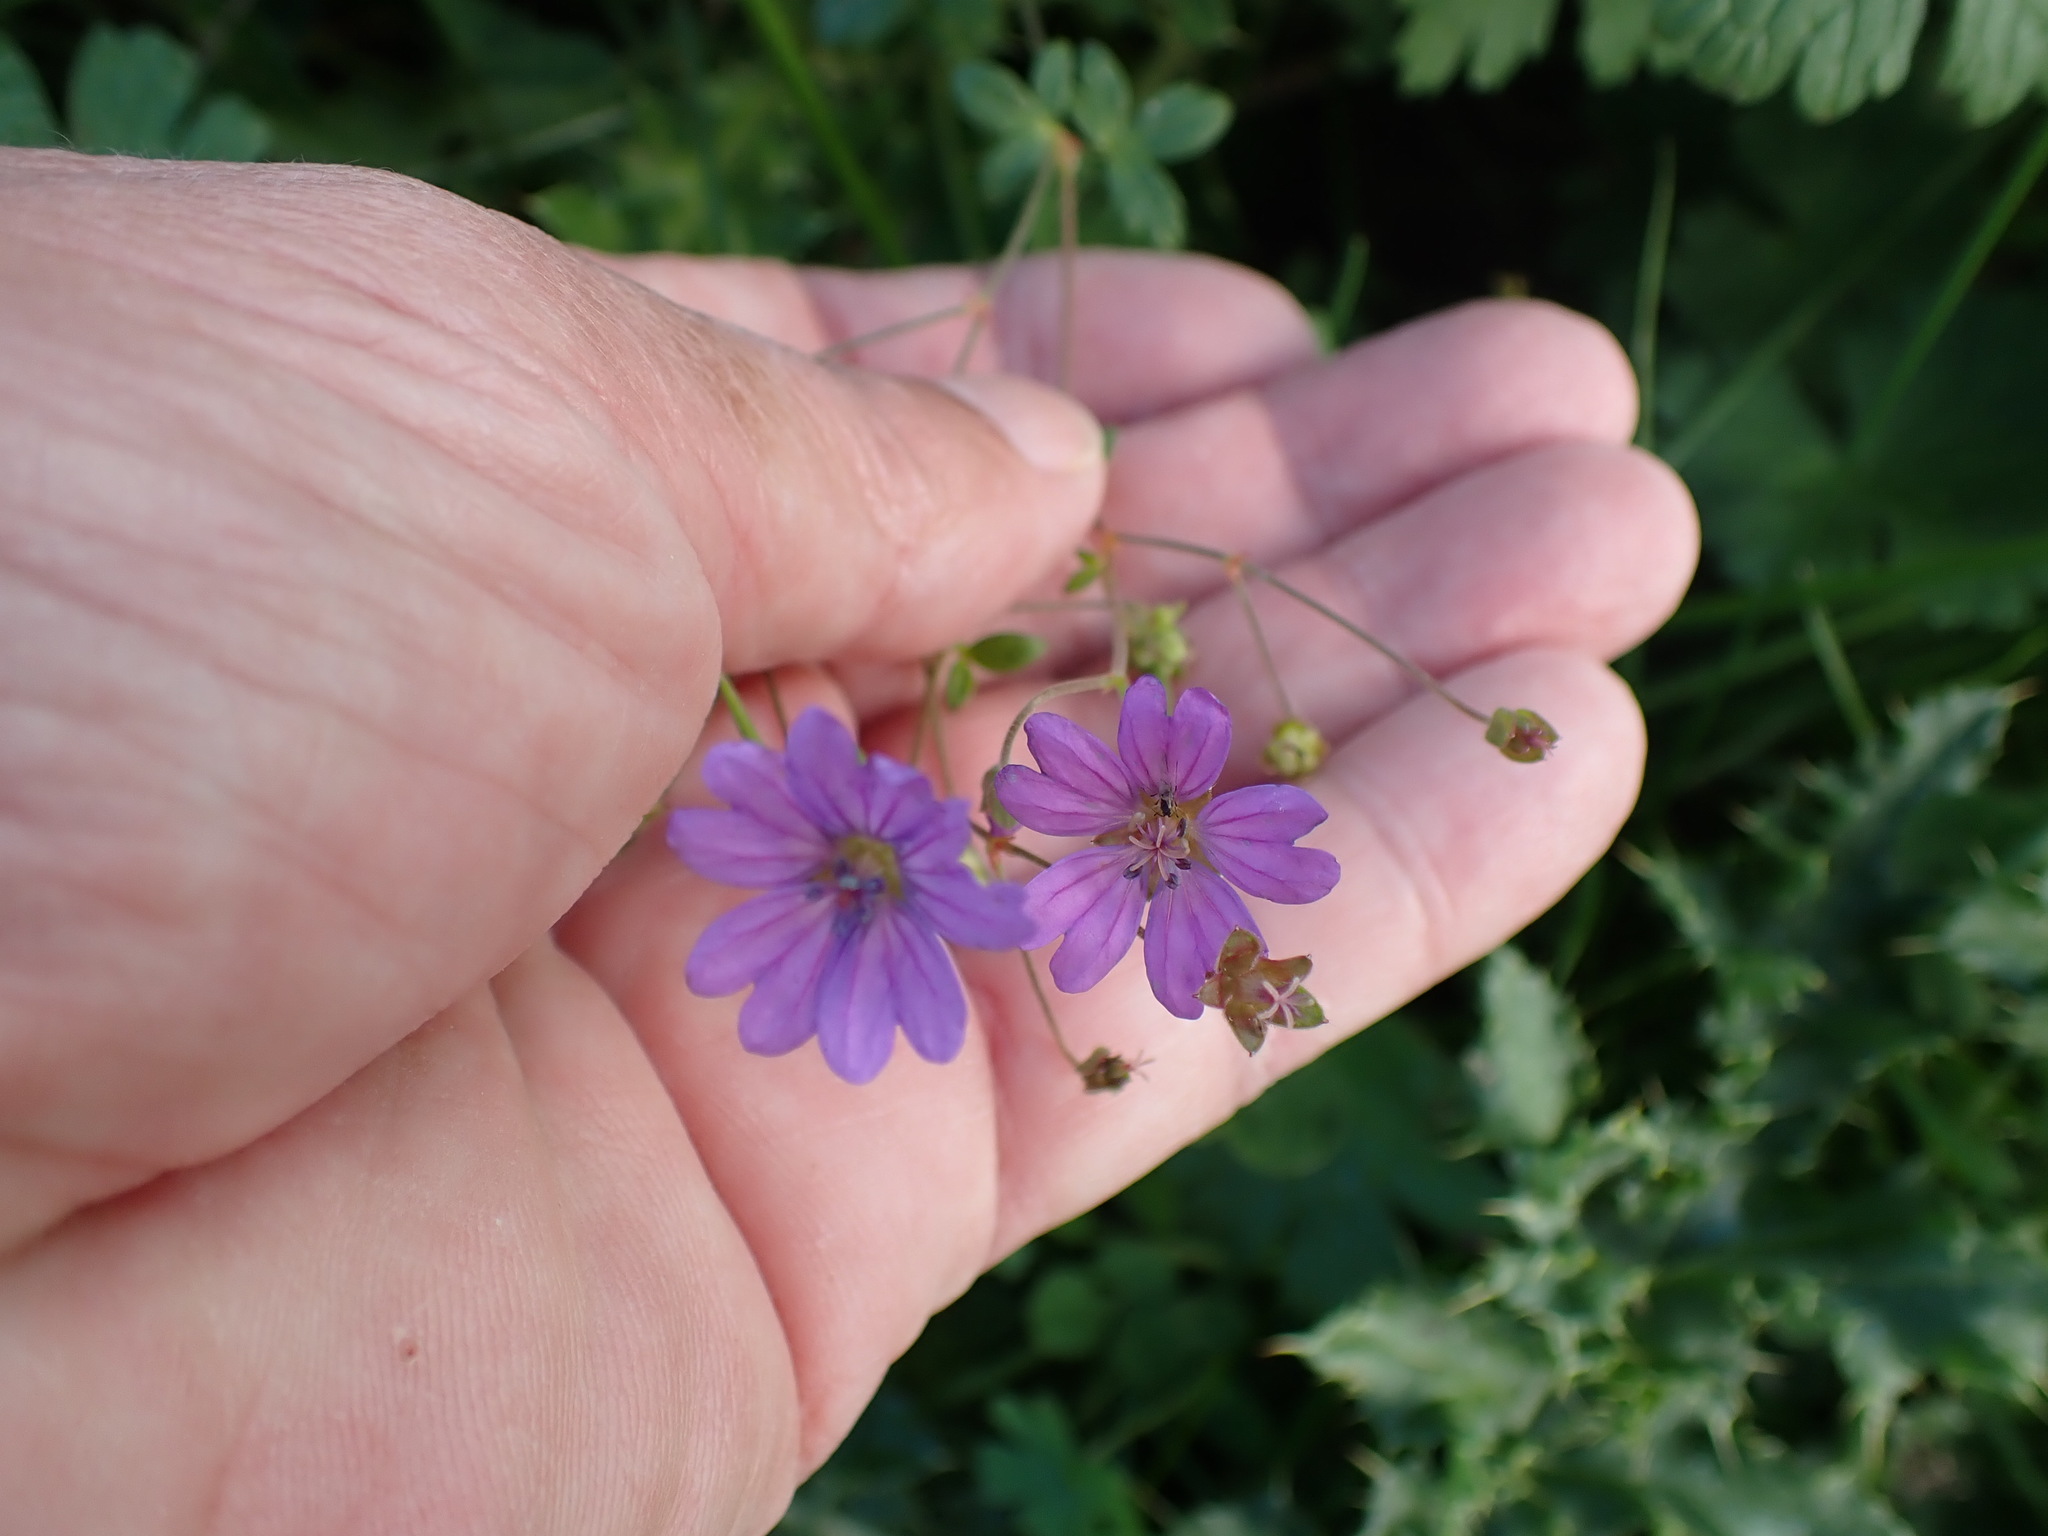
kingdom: Plantae
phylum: Tracheophyta
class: Magnoliopsida
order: Geraniales
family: Geraniaceae
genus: Geranium
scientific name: Geranium pyrenaicum
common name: Hedgerow crane's-bill
